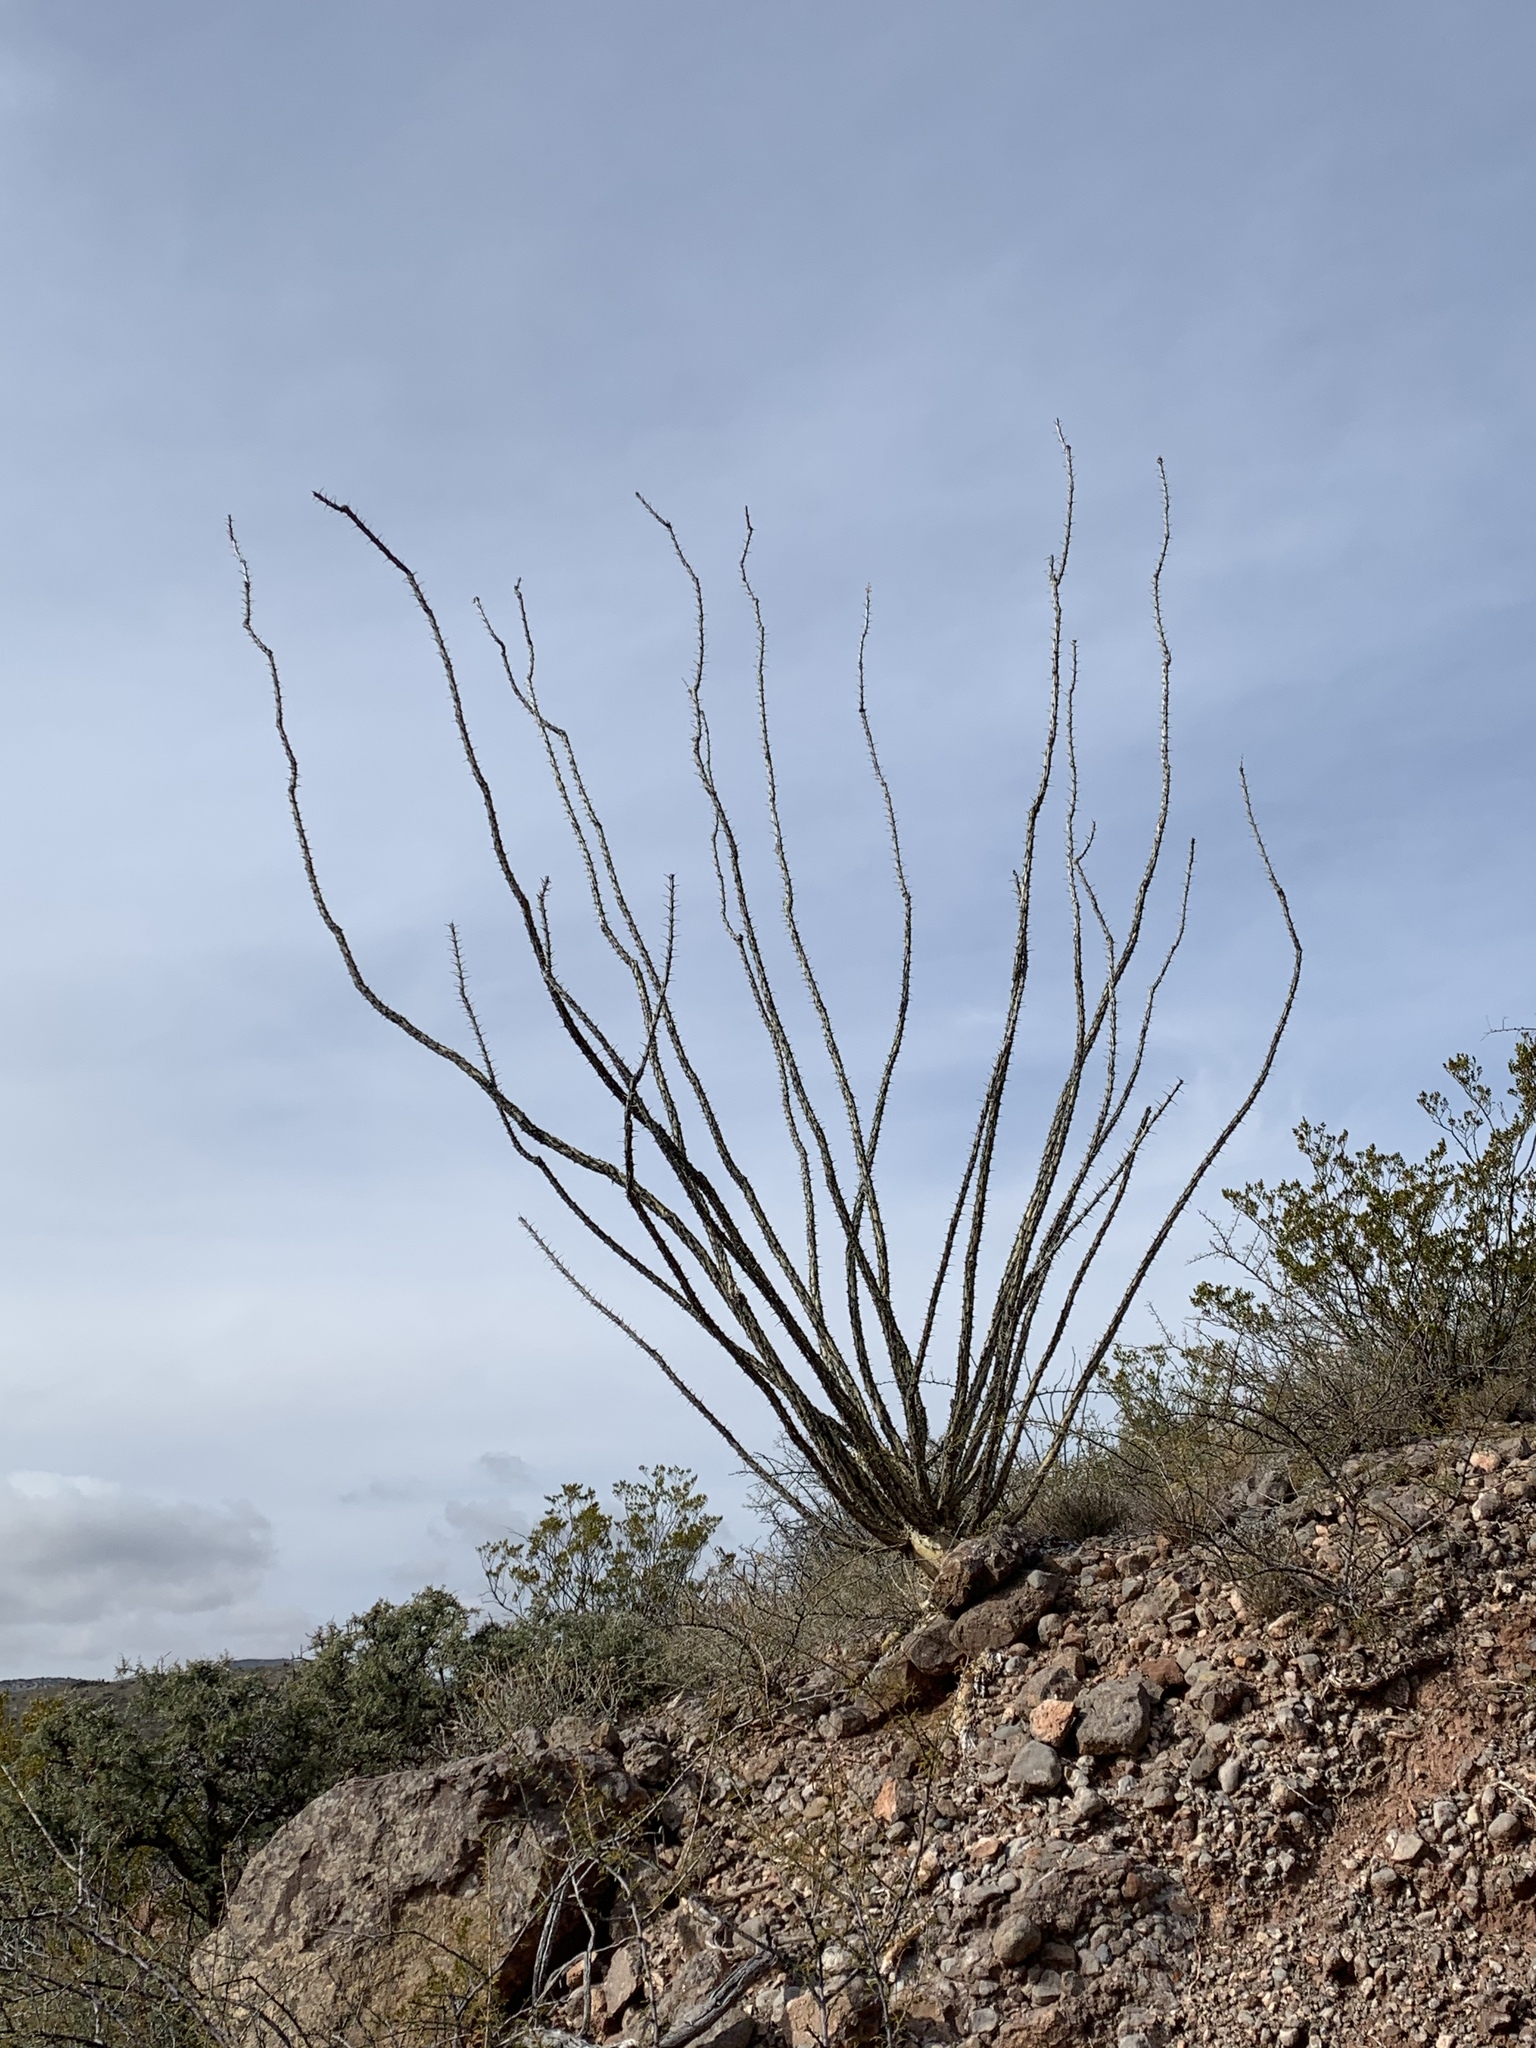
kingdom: Plantae
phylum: Tracheophyta
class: Magnoliopsida
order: Ericales
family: Fouquieriaceae
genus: Fouquieria
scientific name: Fouquieria splendens
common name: Vine-cactus
